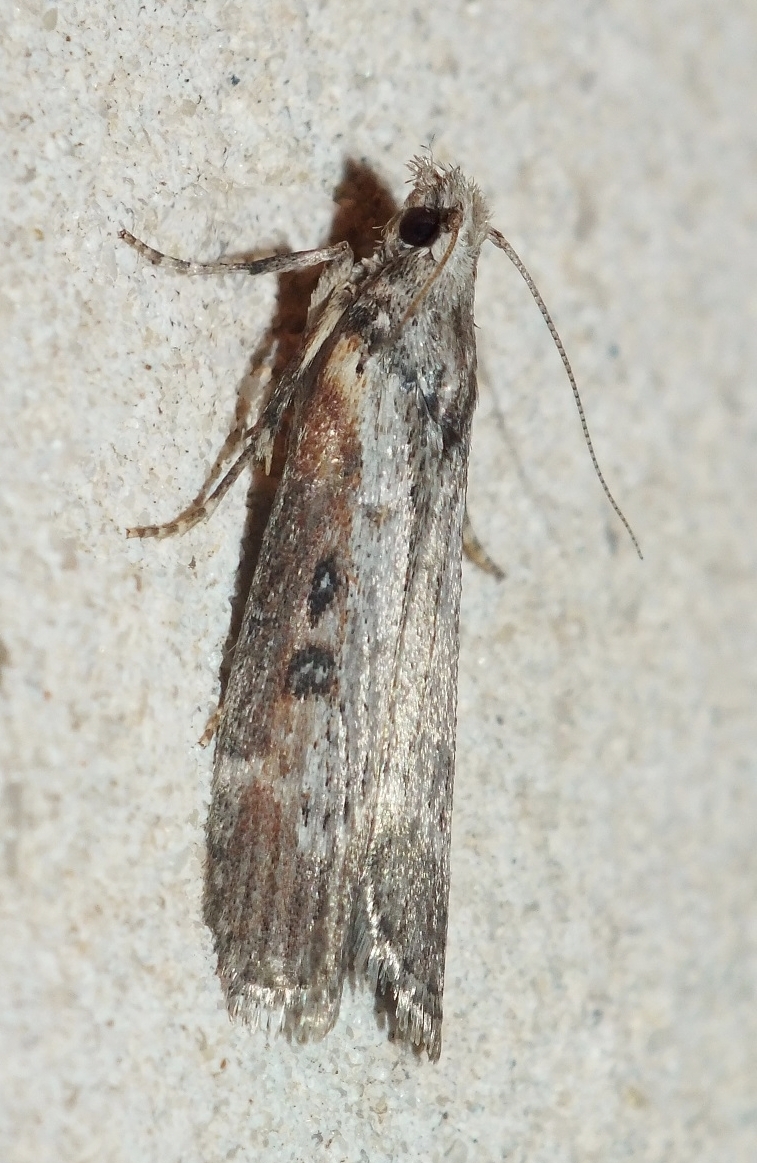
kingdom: Animalia
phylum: Arthropoda
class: Insecta
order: Lepidoptera
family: Pyralidae
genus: Lamoria
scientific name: Lamoria anella
